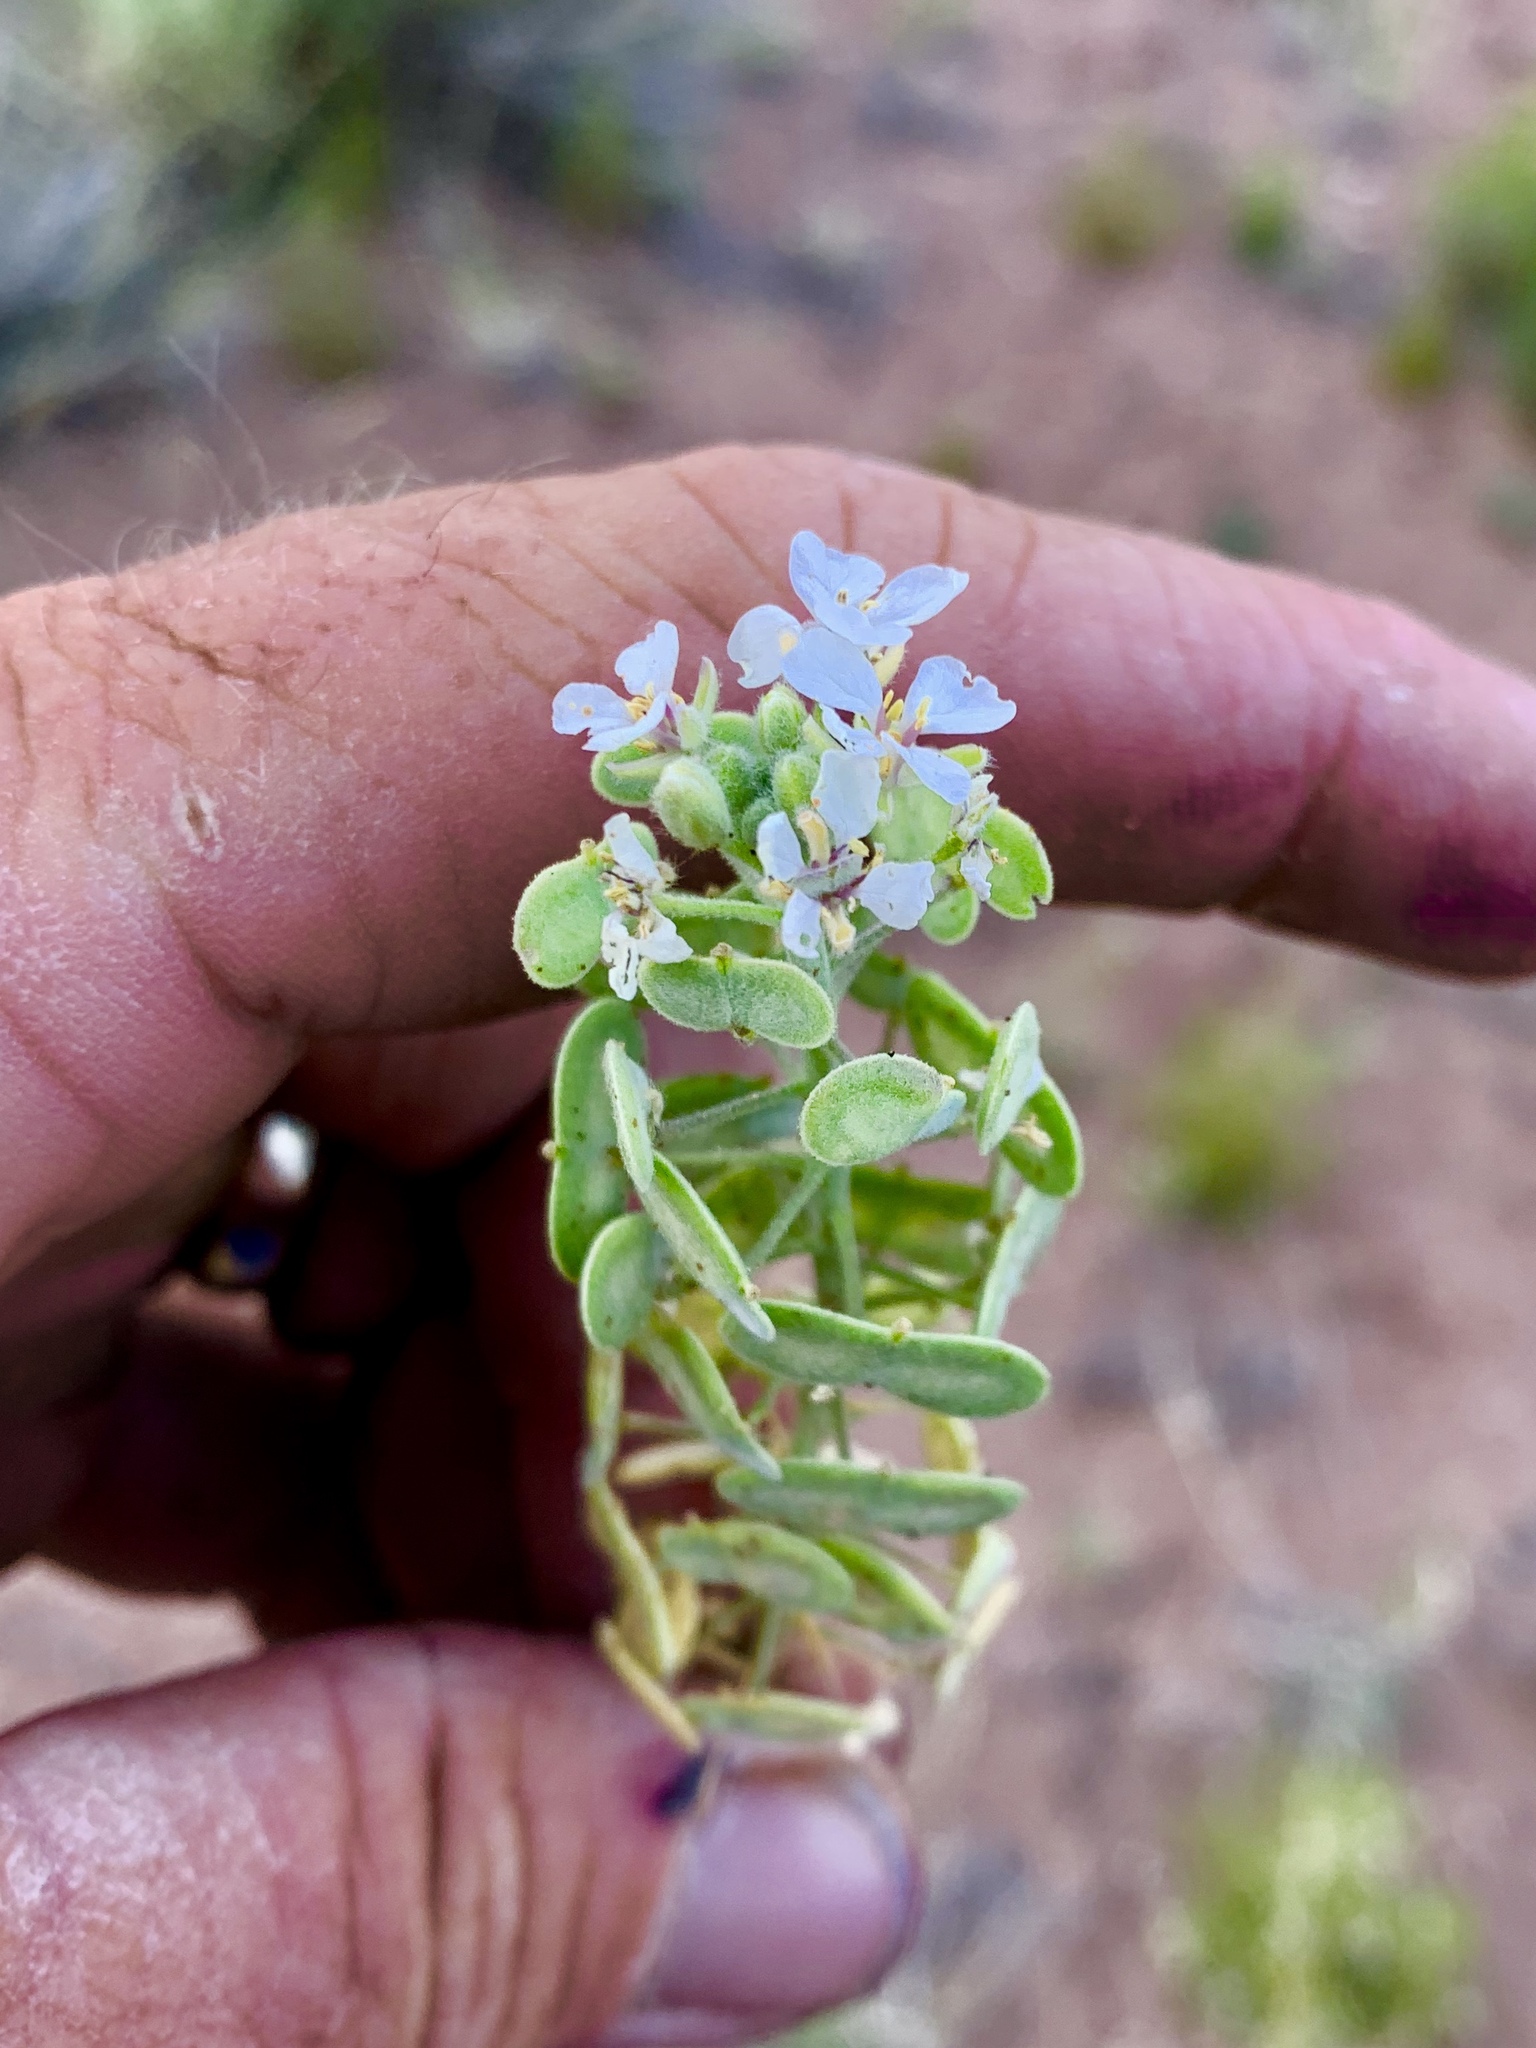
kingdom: Plantae
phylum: Tracheophyta
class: Magnoliopsida
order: Brassicales
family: Brassicaceae
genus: Dimorphocarpa
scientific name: Dimorphocarpa wislizenii
